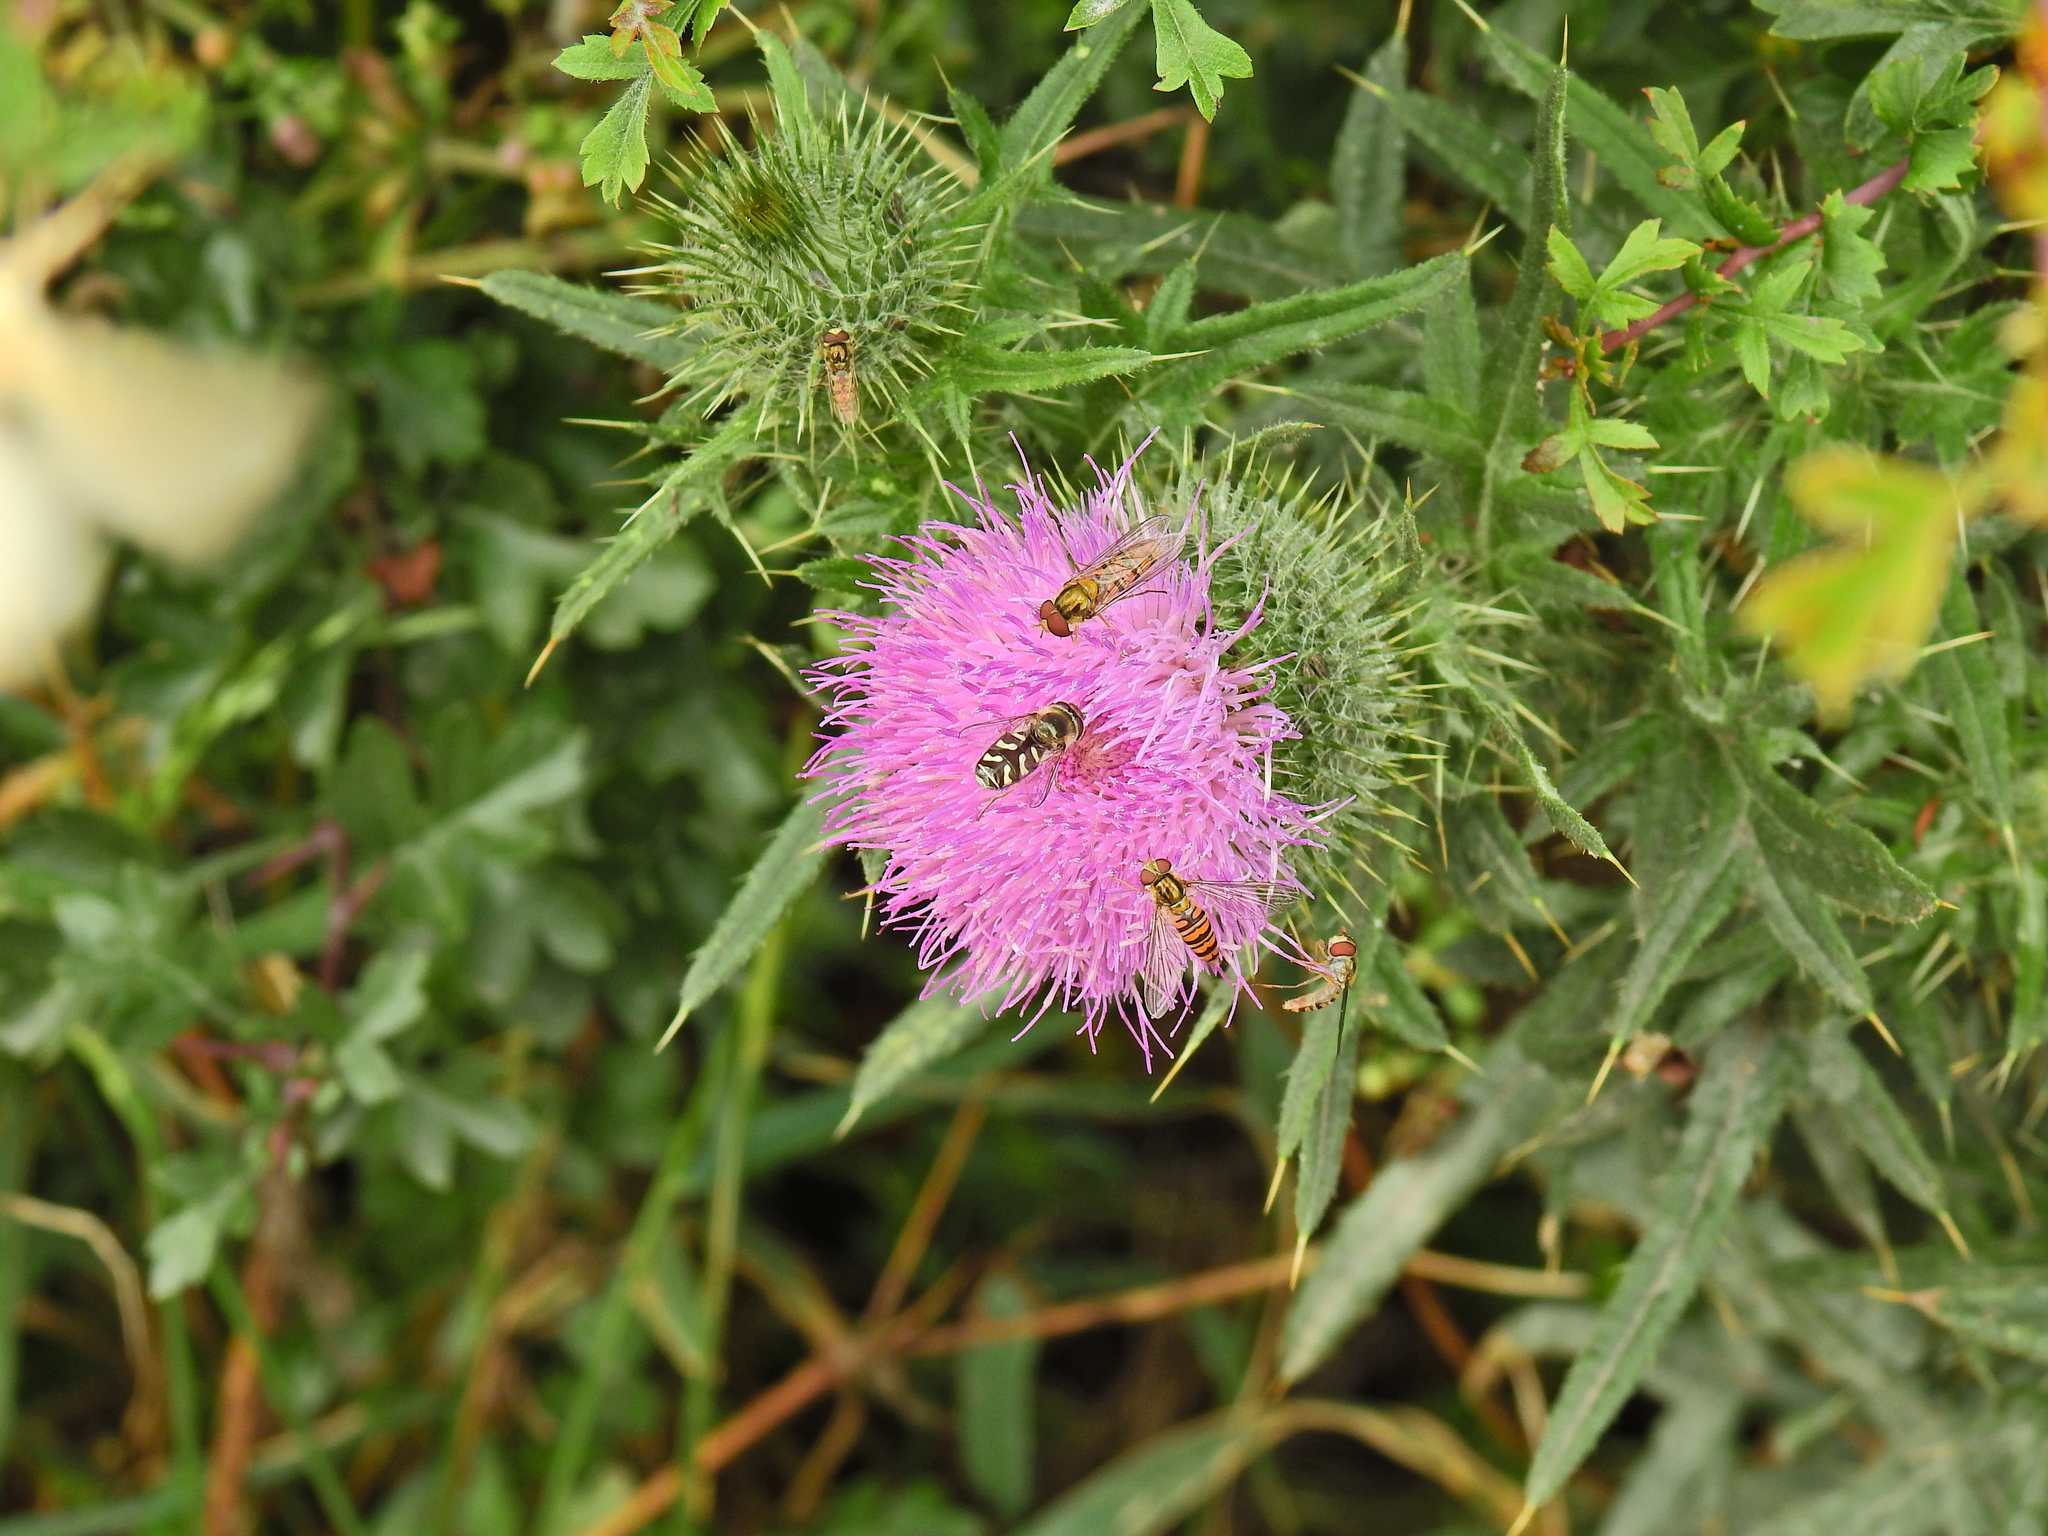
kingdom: Animalia
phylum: Arthropoda
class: Insecta
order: Diptera
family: Syrphidae
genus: Scaeva
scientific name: Scaeva pyrastri
